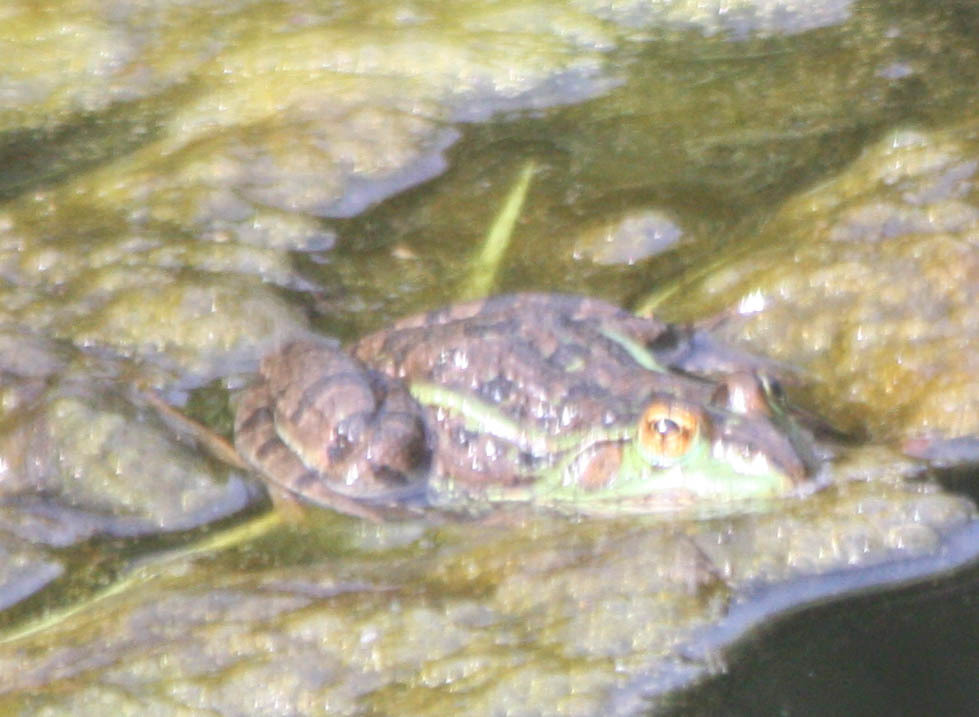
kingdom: Animalia
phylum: Chordata
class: Amphibia
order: Anura
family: Ranidae
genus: Lithobates
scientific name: Lithobates montezumae
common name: Montezuma leopard frog
